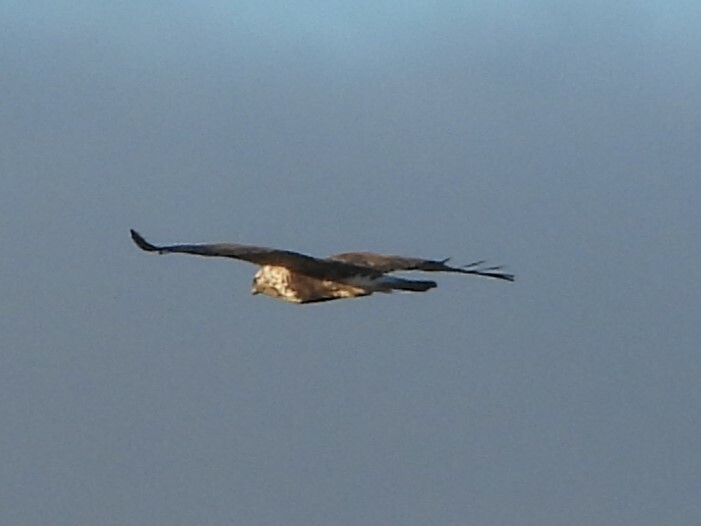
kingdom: Animalia
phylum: Chordata
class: Aves
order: Accipitriformes
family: Accipitridae
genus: Buteo
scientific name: Buteo lagopus
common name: Rough-legged buzzard
